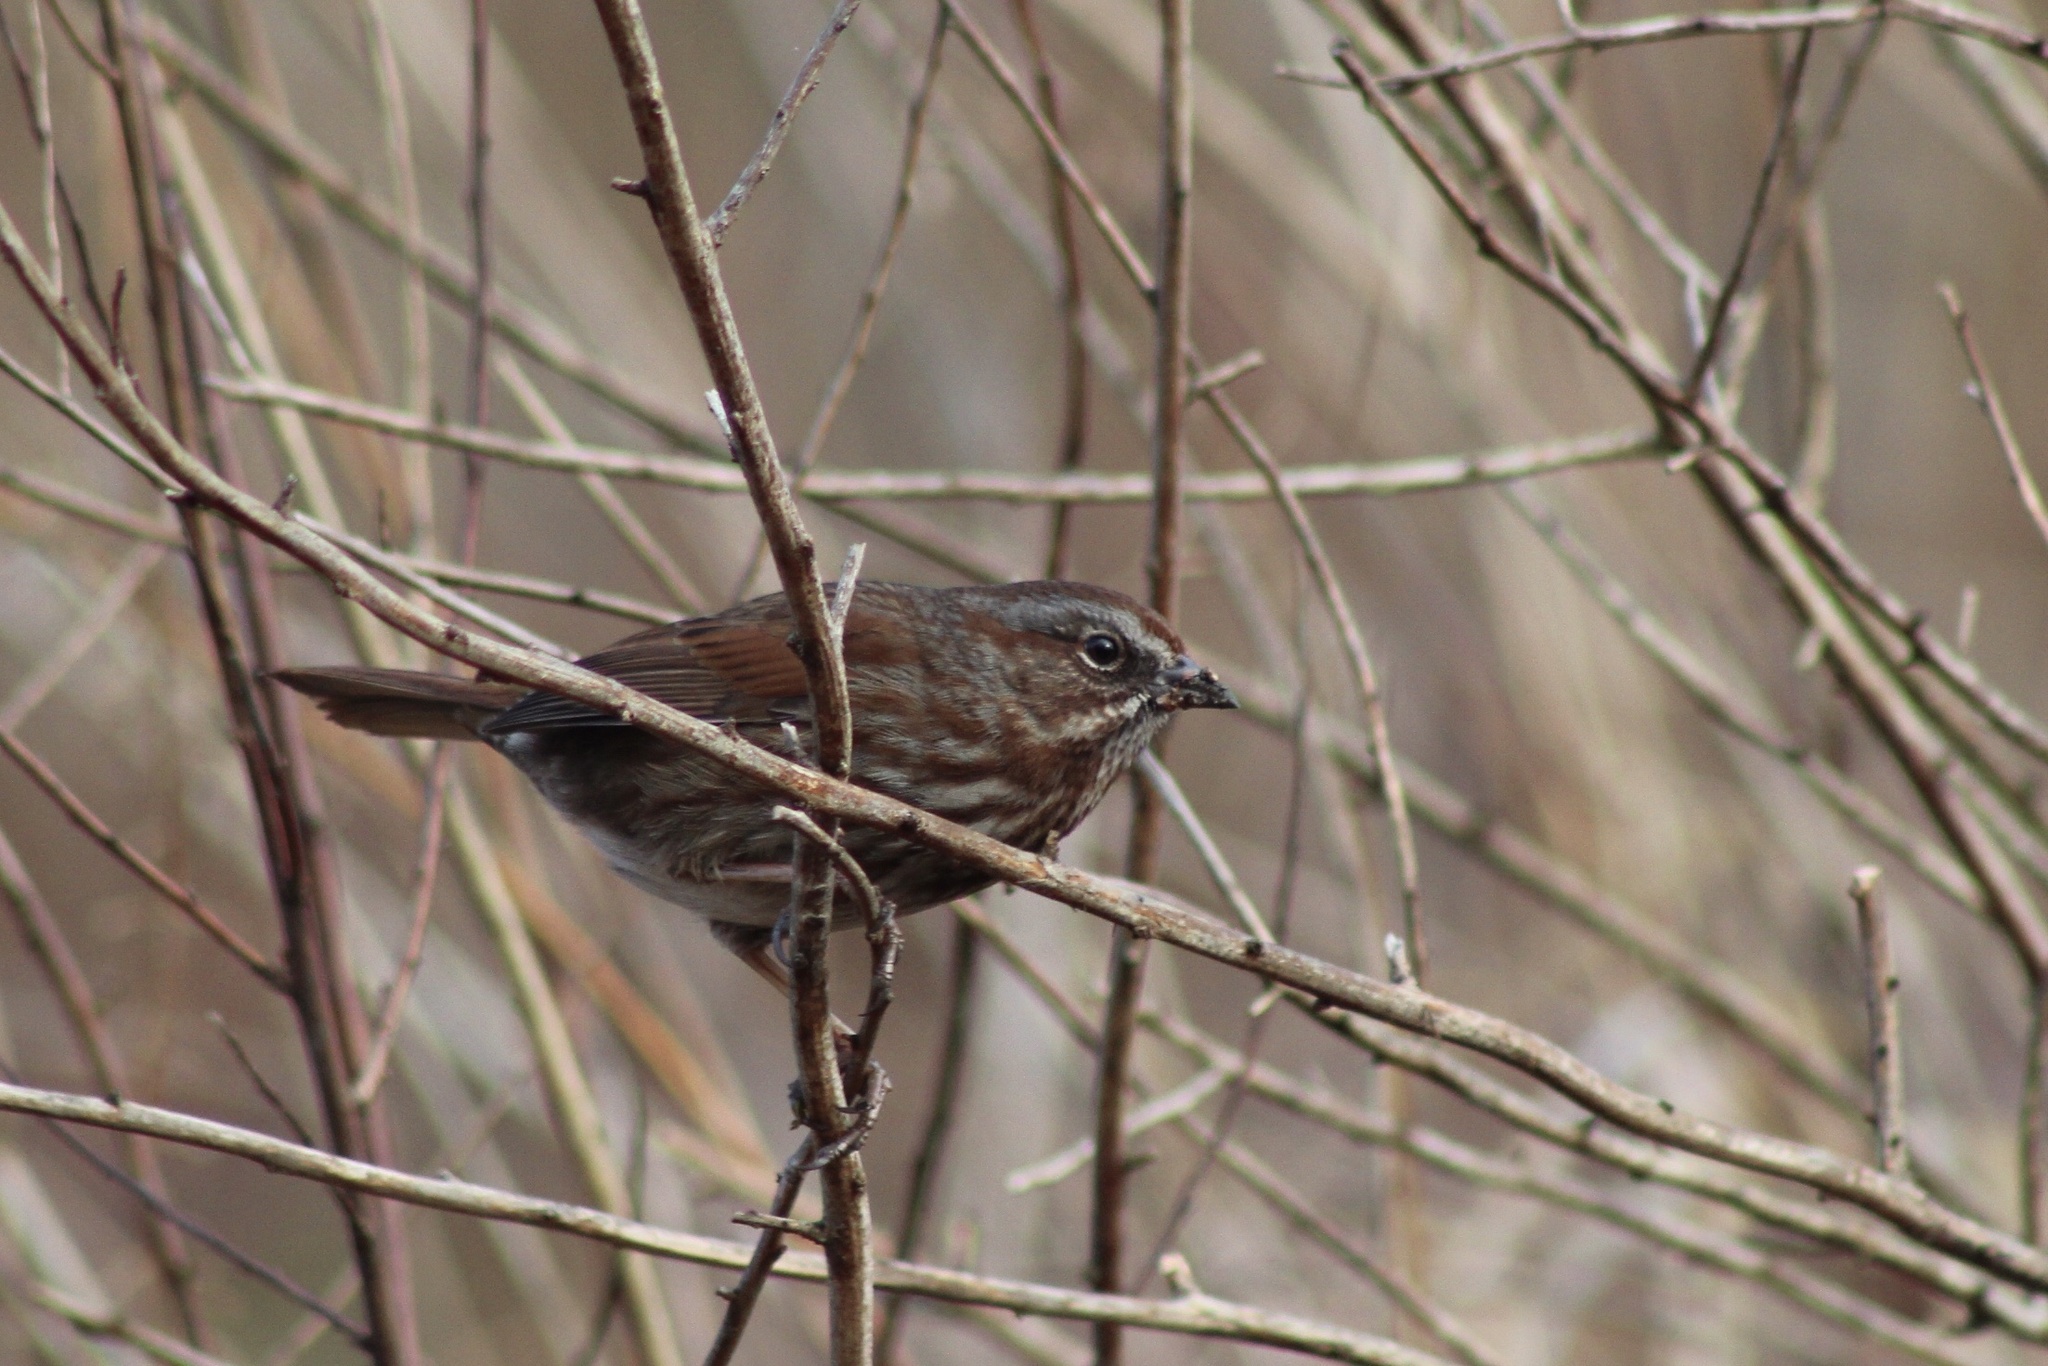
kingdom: Animalia
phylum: Chordata
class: Aves
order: Passeriformes
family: Passerellidae
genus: Melospiza
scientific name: Melospiza melodia
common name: Song sparrow
